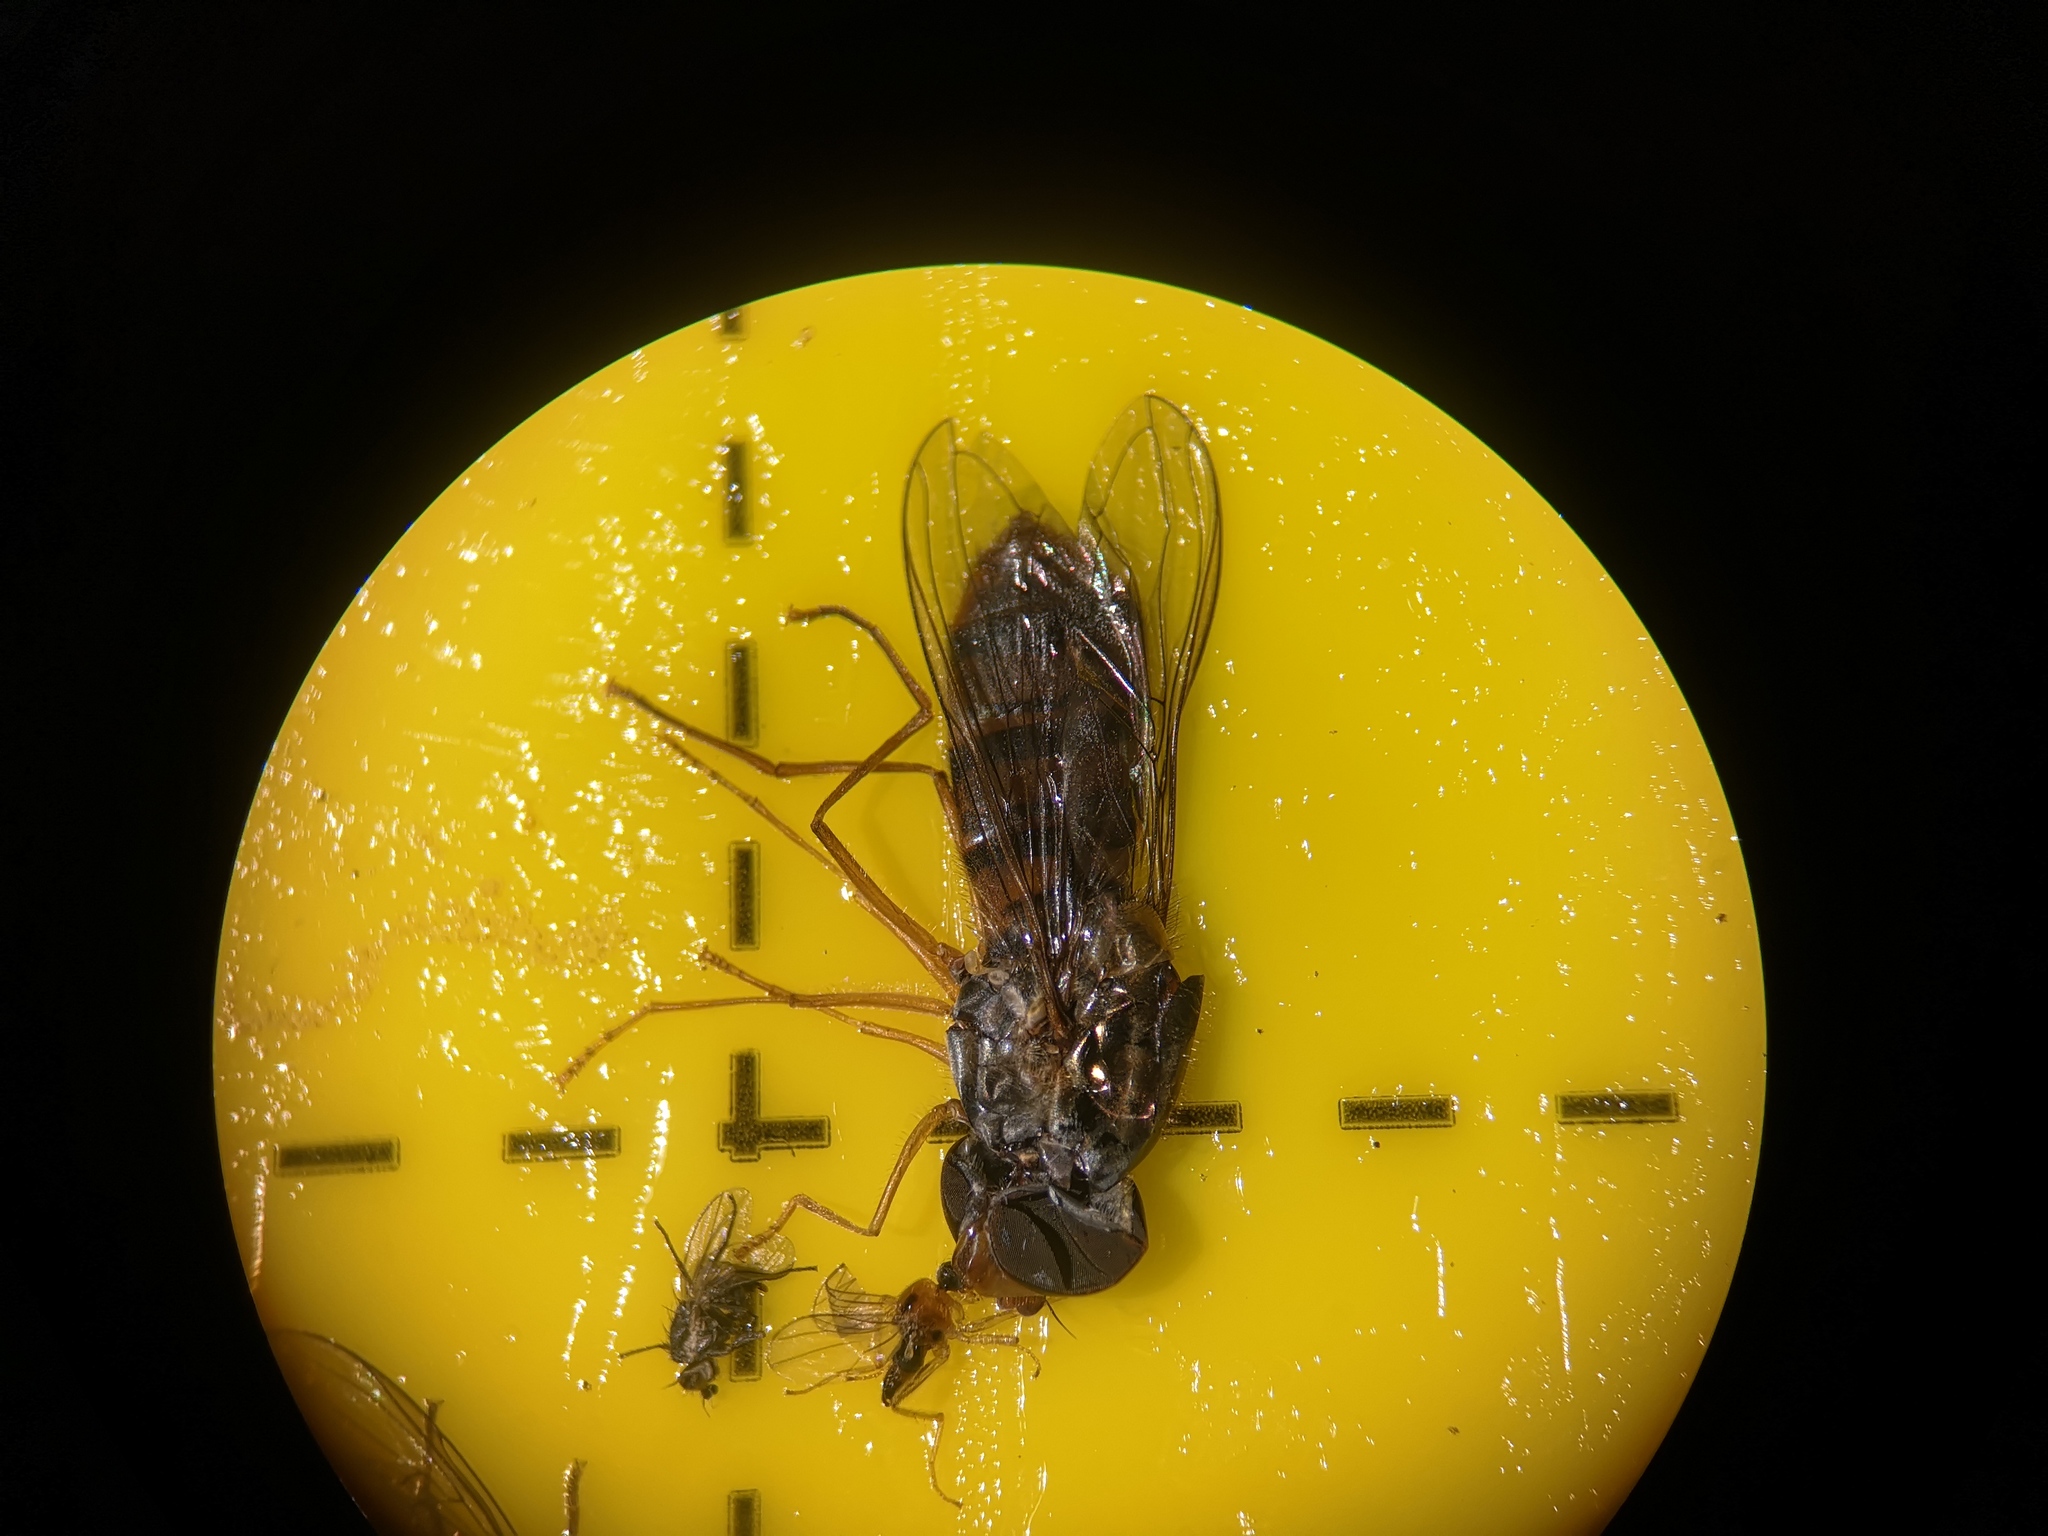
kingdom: Animalia
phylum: Arthropoda
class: Insecta
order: Diptera
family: Syrphidae
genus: Episyrphus
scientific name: Episyrphus balteatus
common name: Marmalade hoverfly
